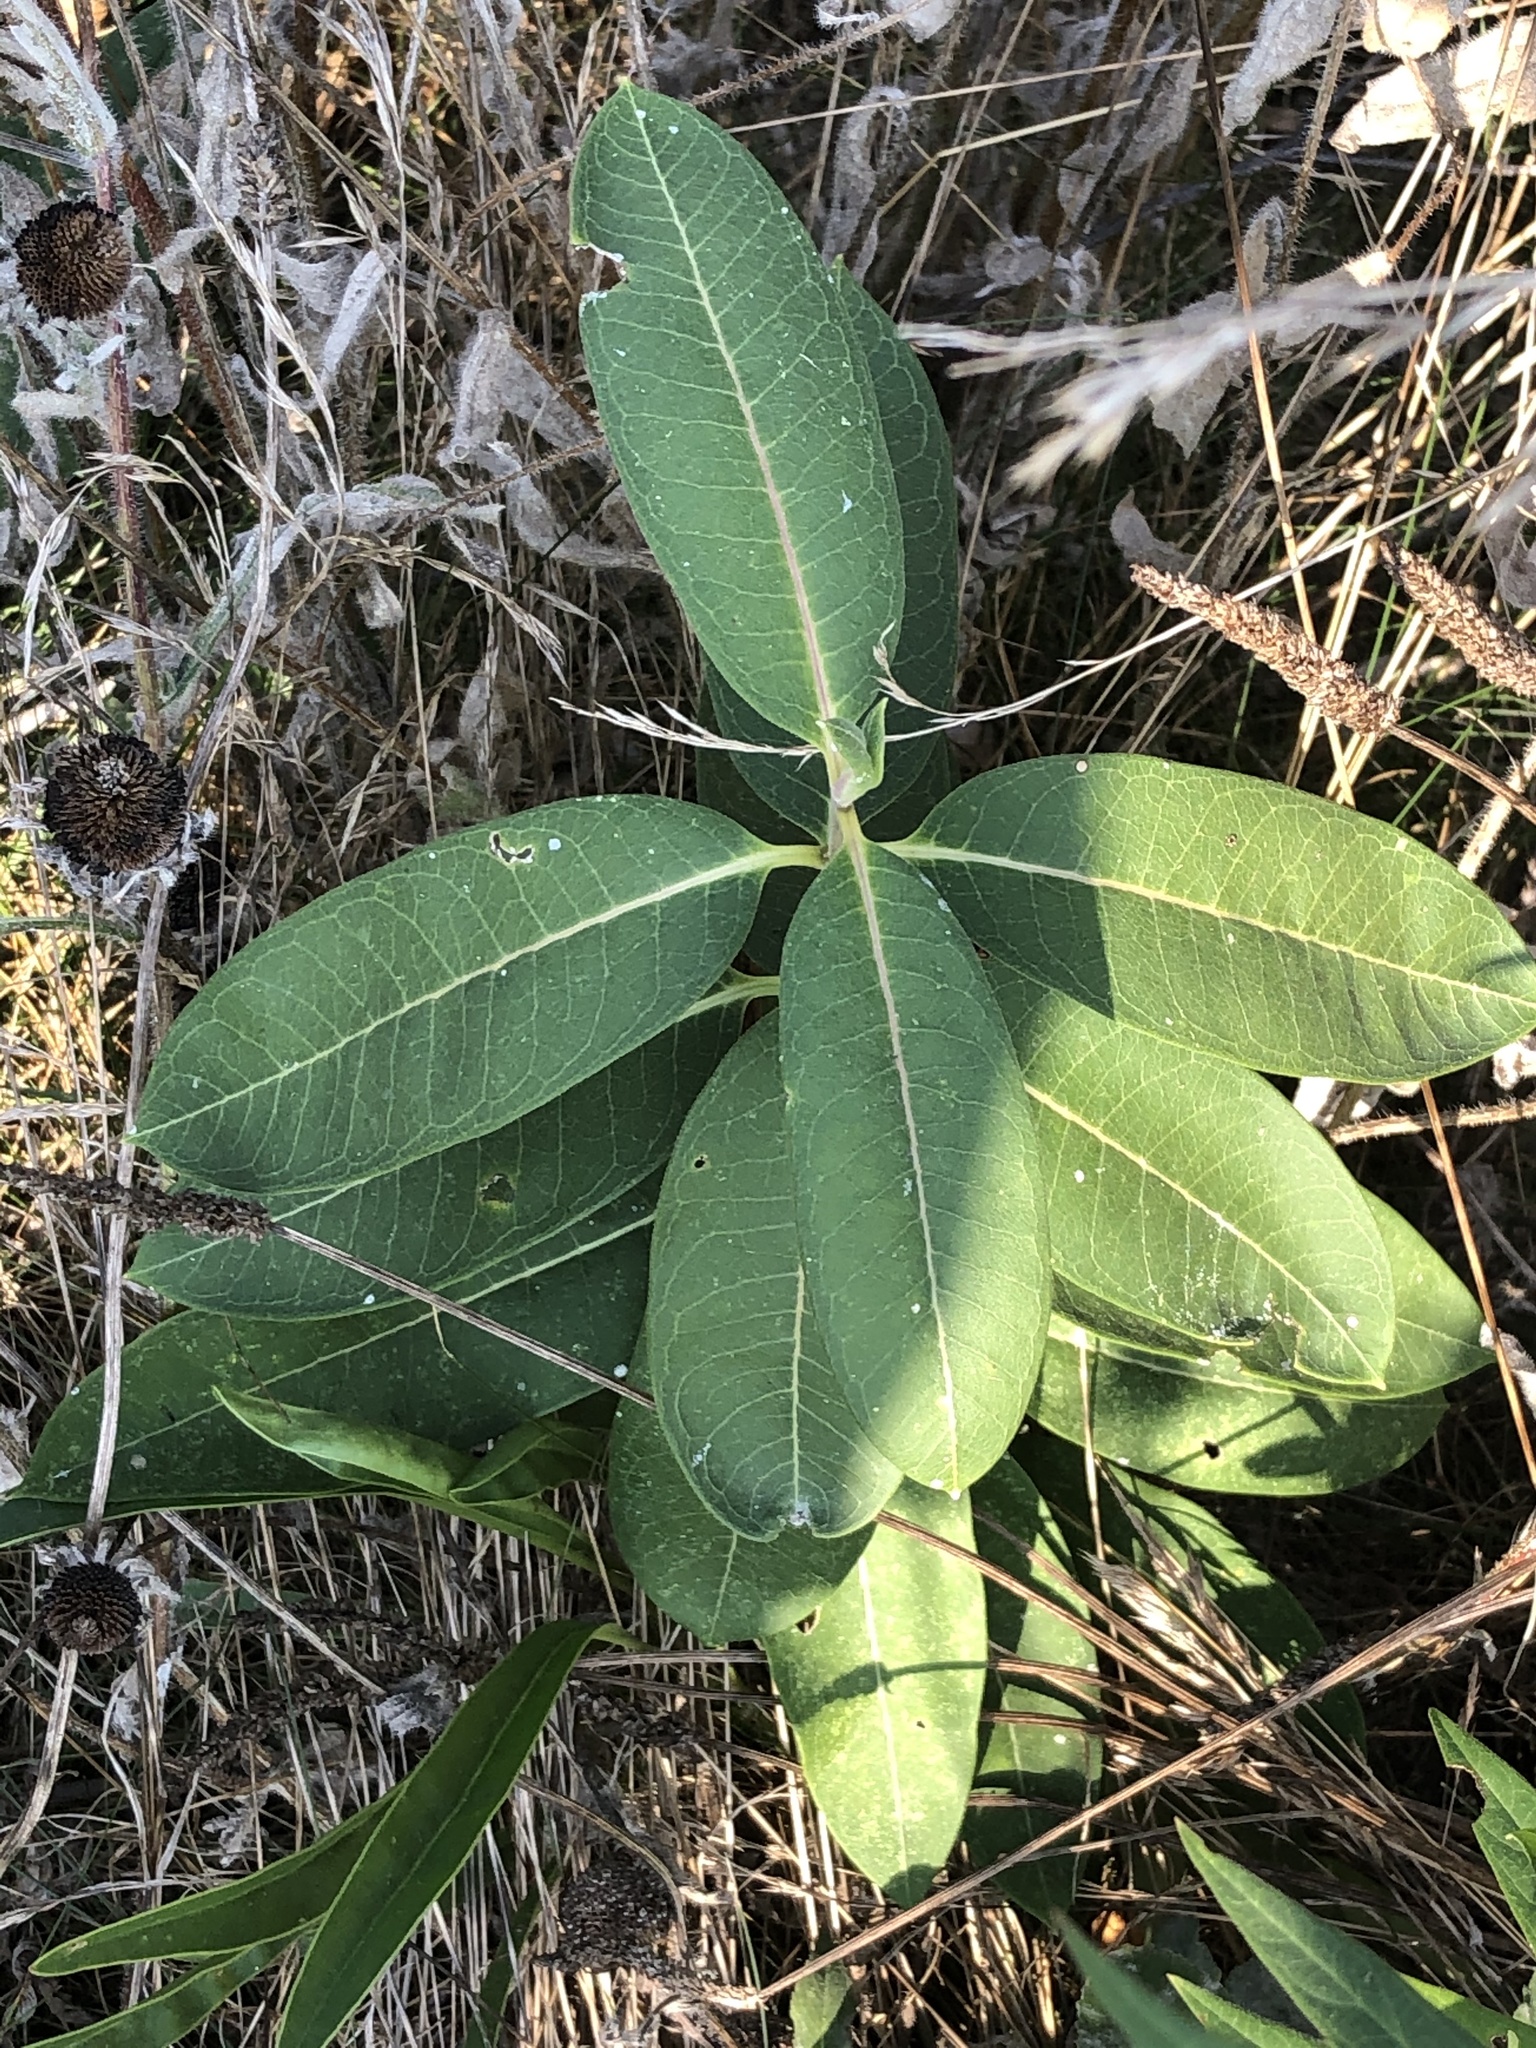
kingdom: Plantae
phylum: Tracheophyta
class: Magnoliopsida
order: Gentianales
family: Apocynaceae
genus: Asclepias
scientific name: Asclepias syriaca
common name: Common milkweed
